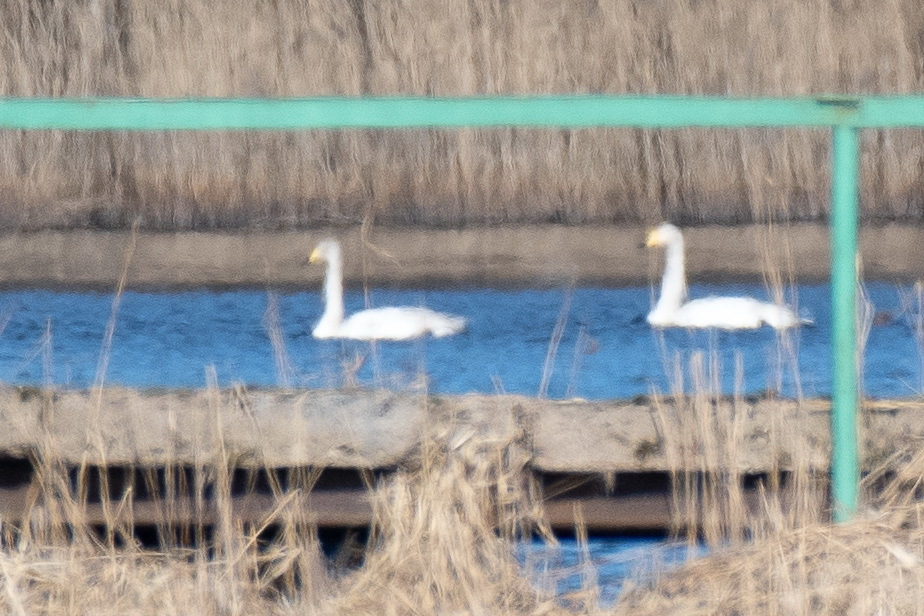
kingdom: Animalia
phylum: Chordata
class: Aves
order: Anseriformes
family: Anatidae
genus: Cygnus
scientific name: Cygnus cygnus
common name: Whooper swan
